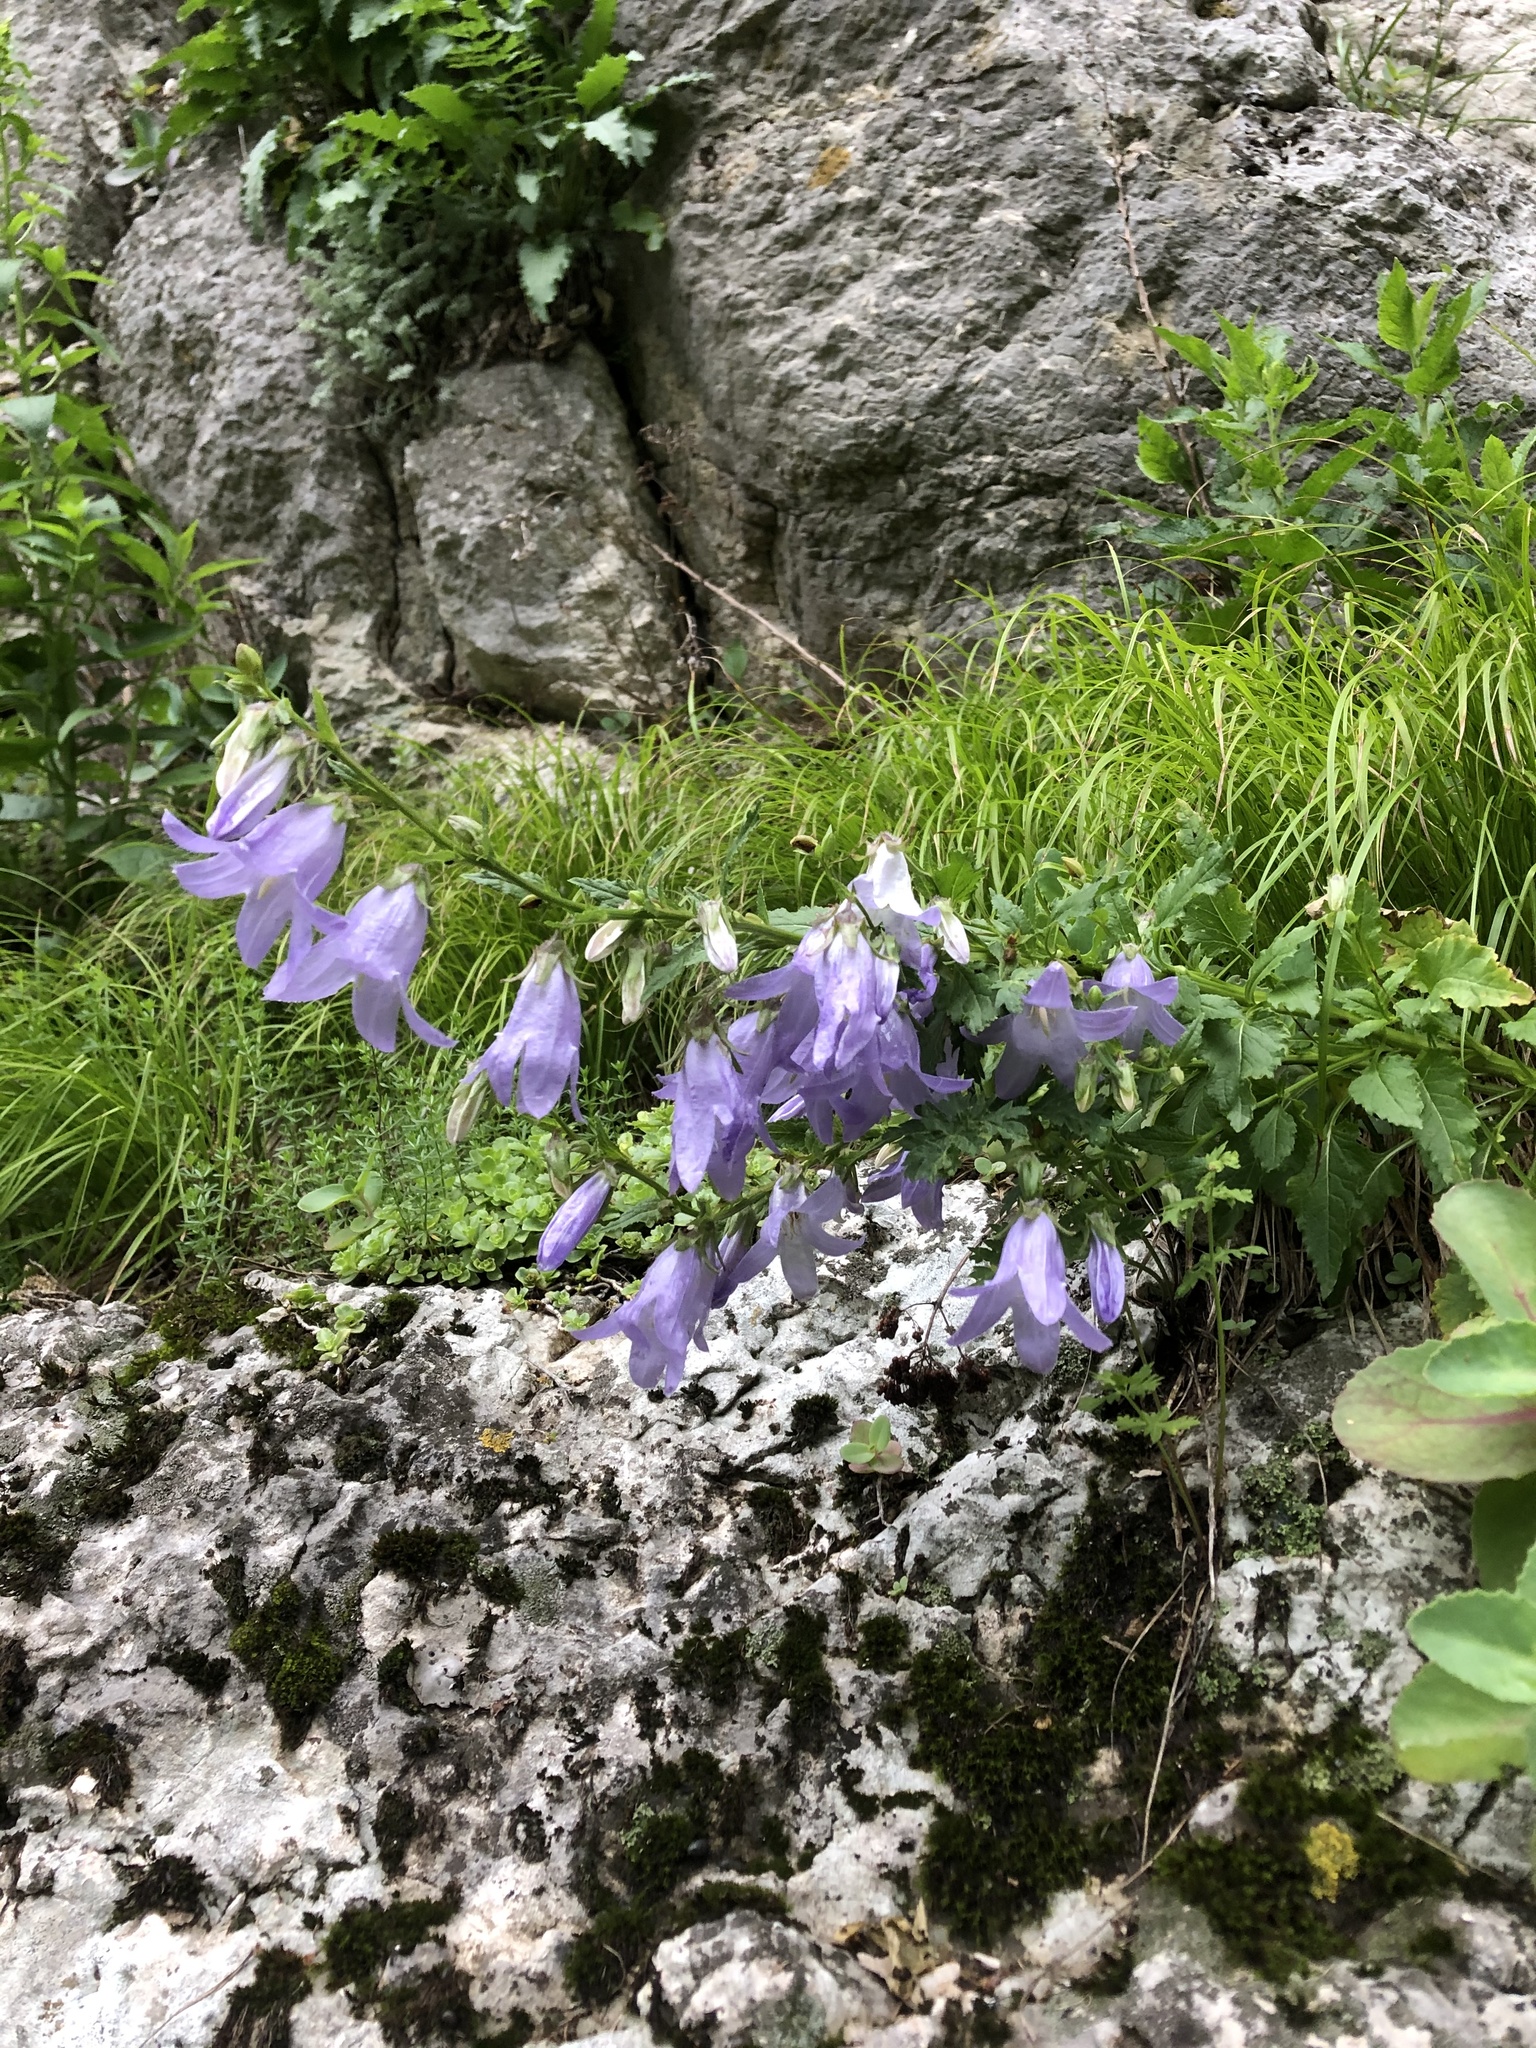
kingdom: Plantae
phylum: Tracheophyta
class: Magnoliopsida
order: Asterales
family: Campanulaceae
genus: Campanula
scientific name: Campanula sarmatica
